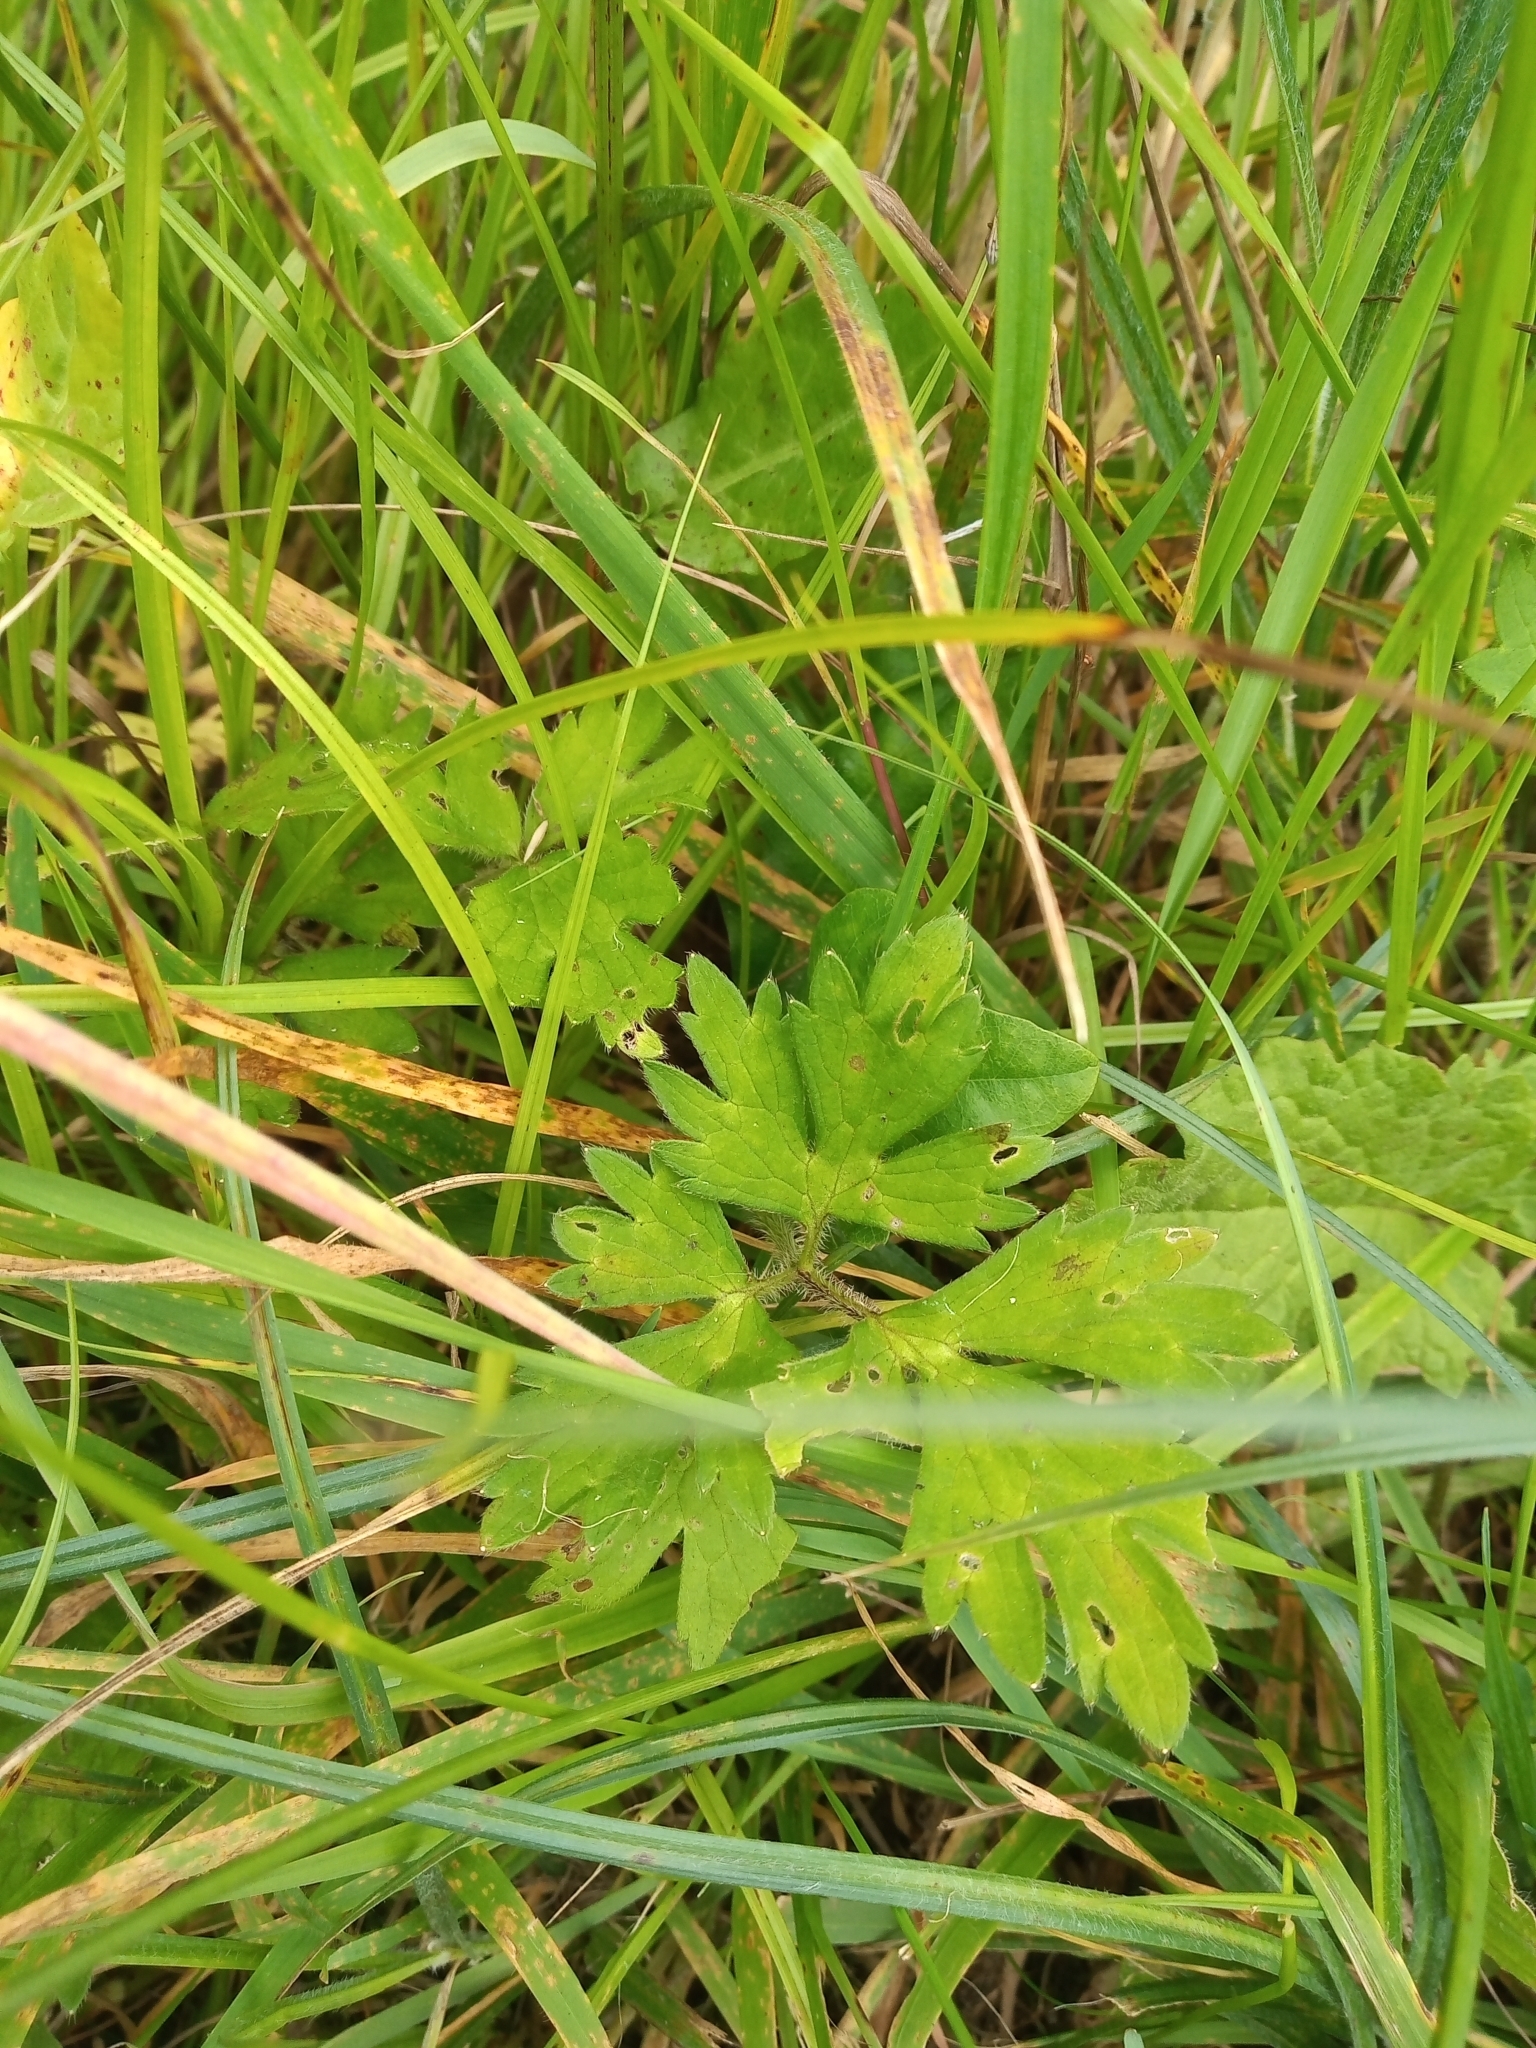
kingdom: Plantae
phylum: Tracheophyta
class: Magnoliopsida
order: Ranunculales
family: Ranunculaceae
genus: Ranunculus
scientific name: Ranunculus repens
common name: Creeping buttercup
